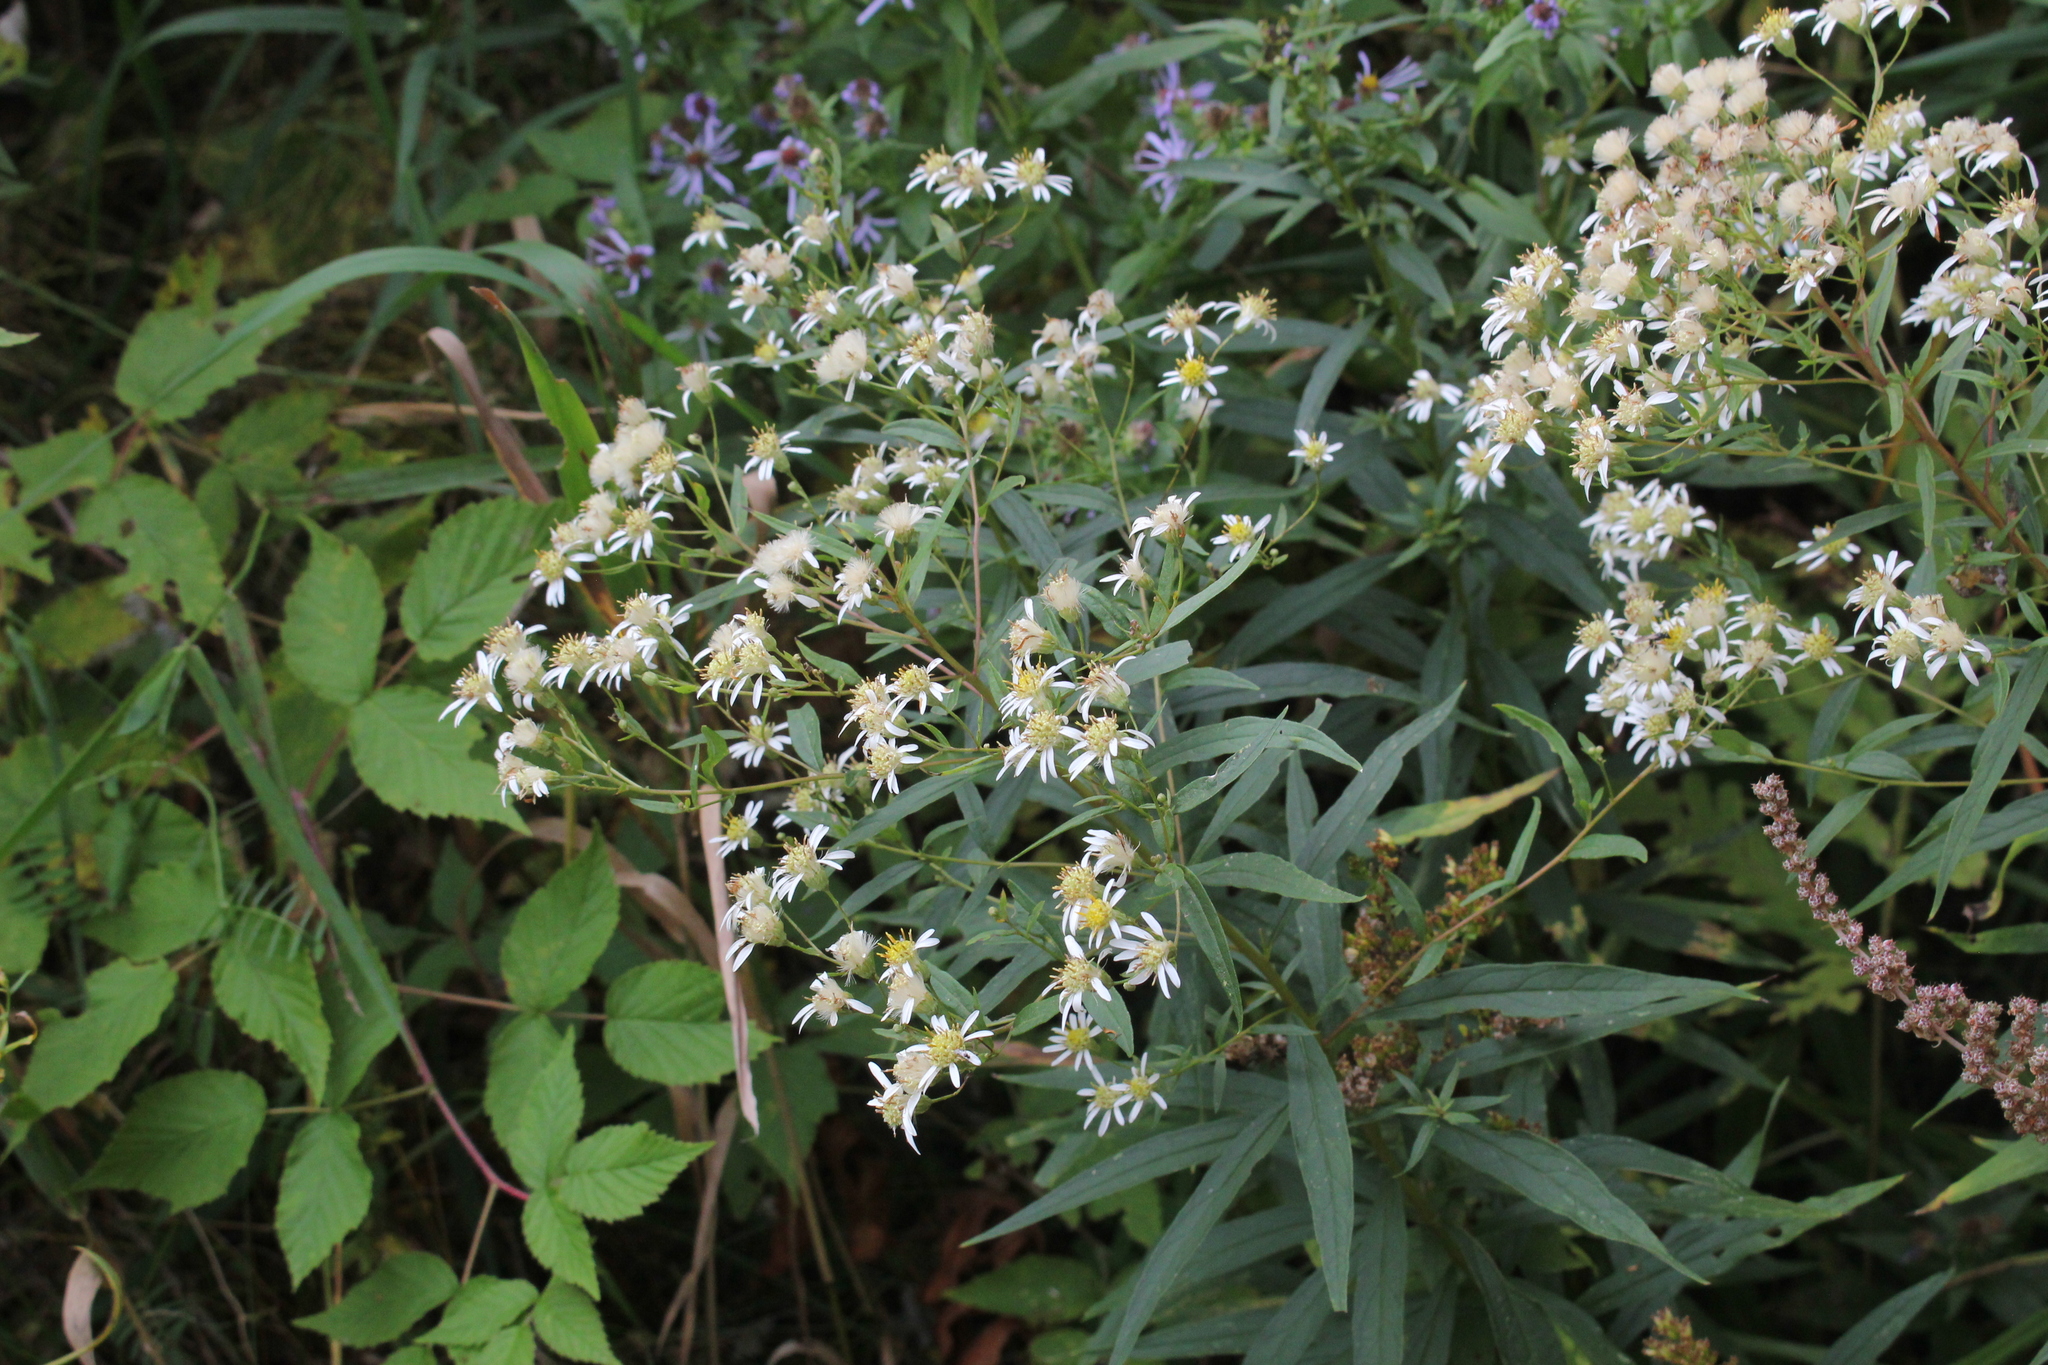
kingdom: Plantae
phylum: Tracheophyta
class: Magnoliopsida
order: Asterales
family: Asteraceae
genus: Doellingeria
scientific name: Doellingeria umbellata
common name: Flat-top white aster
